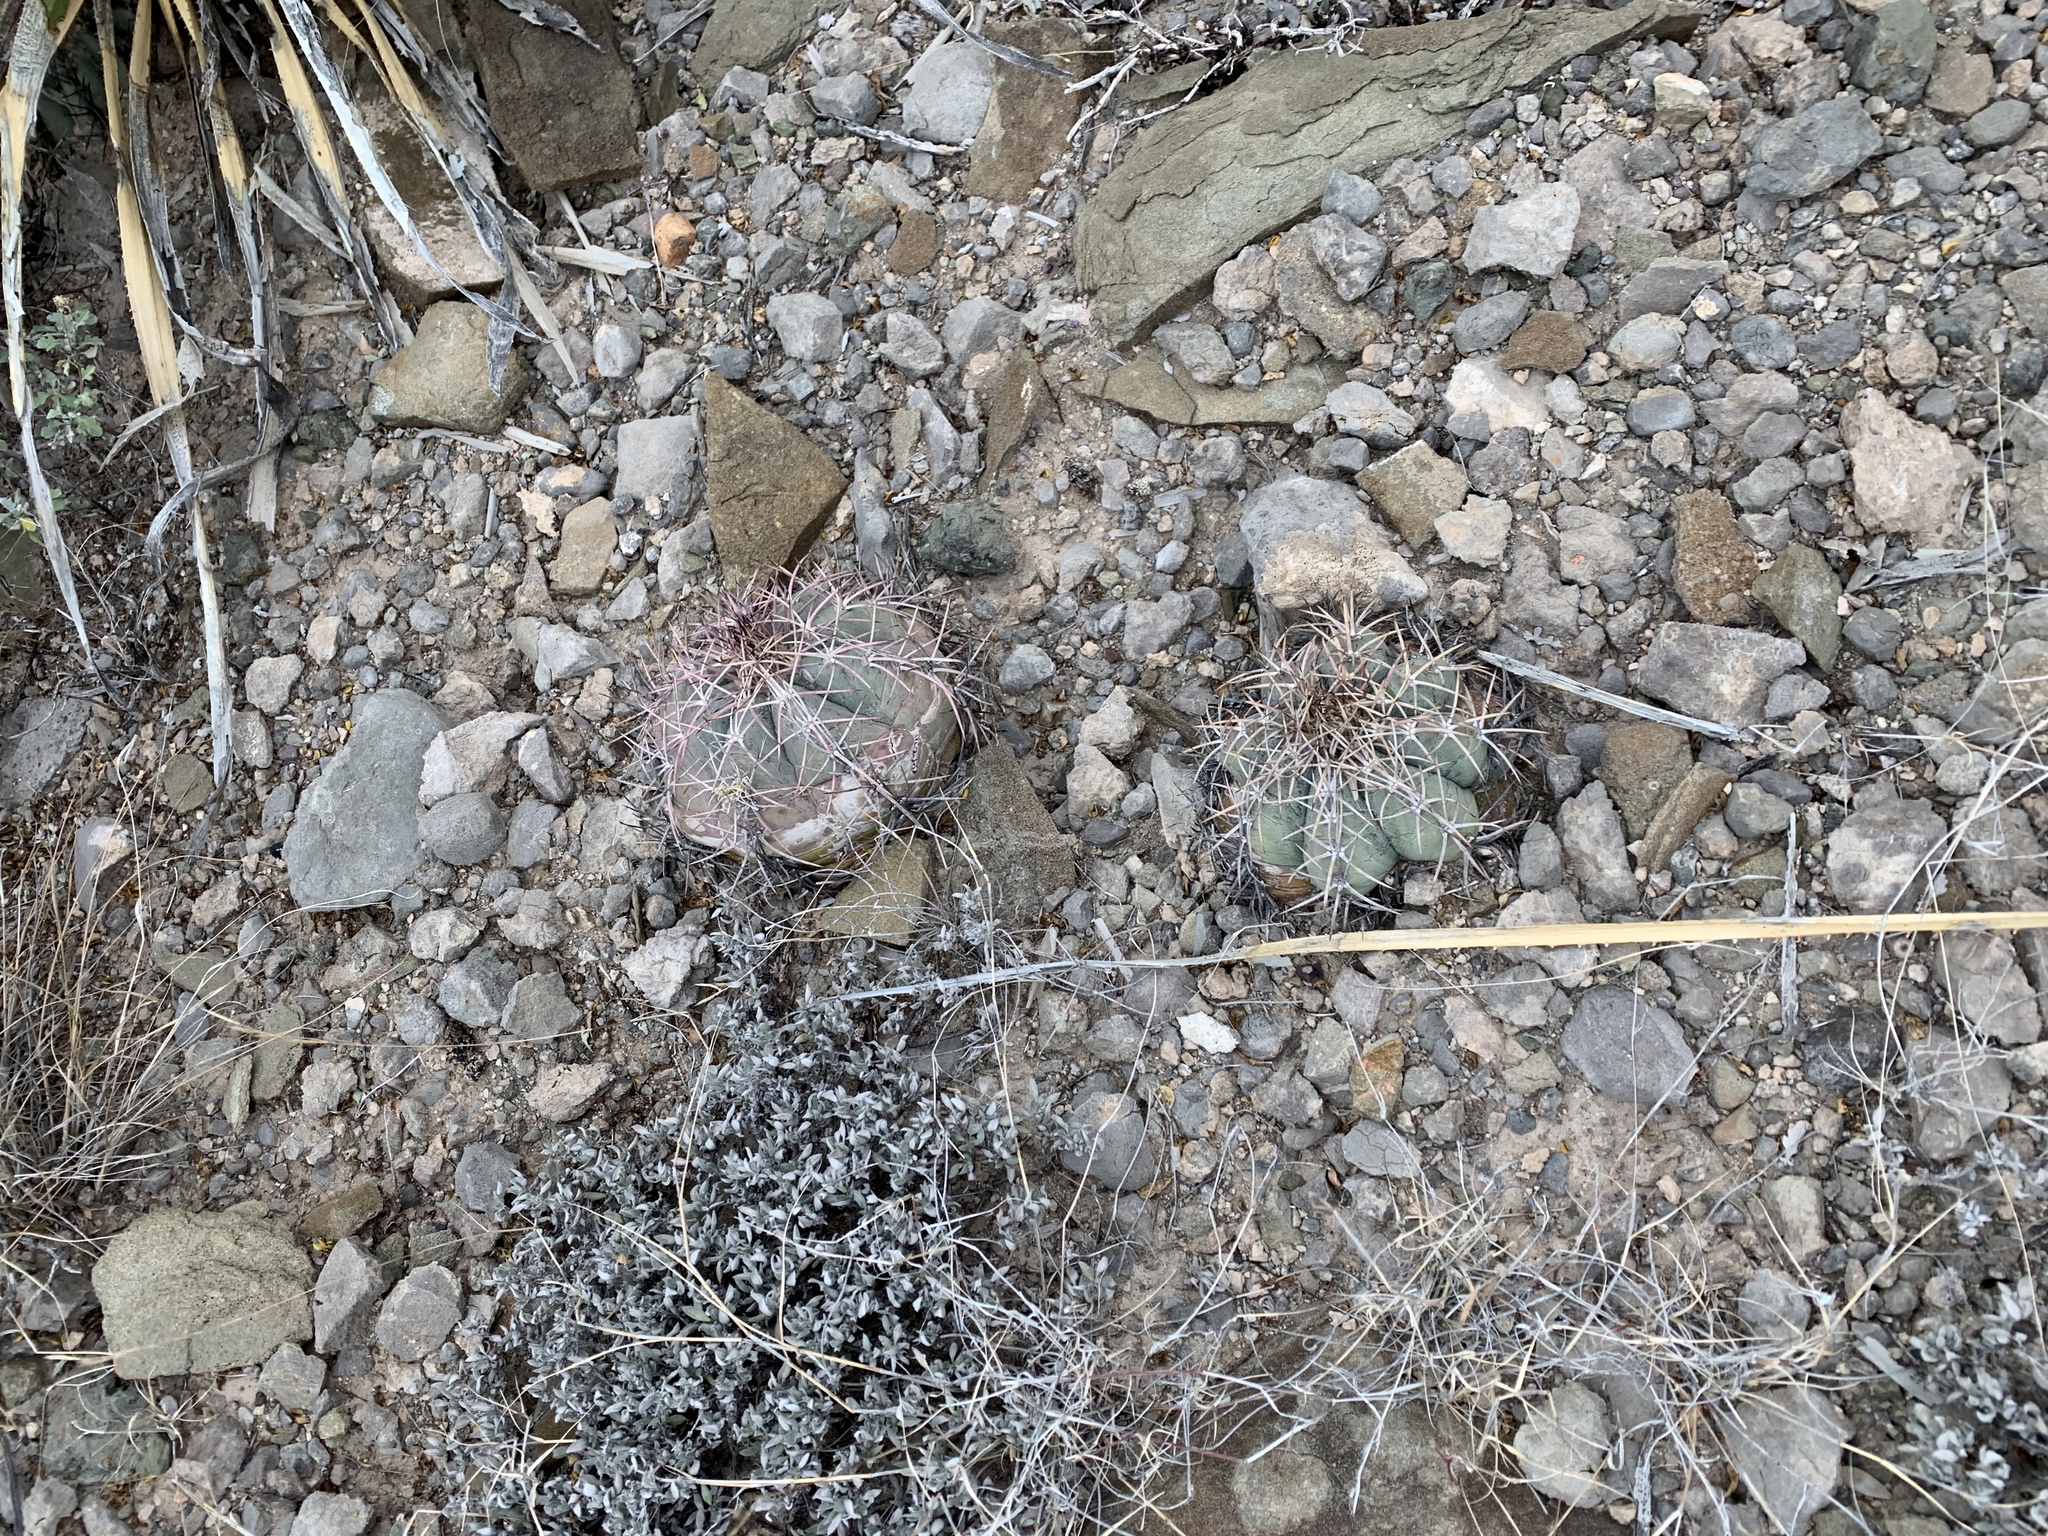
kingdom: Plantae
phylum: Tracheophyta
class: Magnoliopsida
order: Caryophyllales
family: Cactaceae
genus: Echinocactus
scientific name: Echinocactus horizonthalonius
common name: Devilshead
